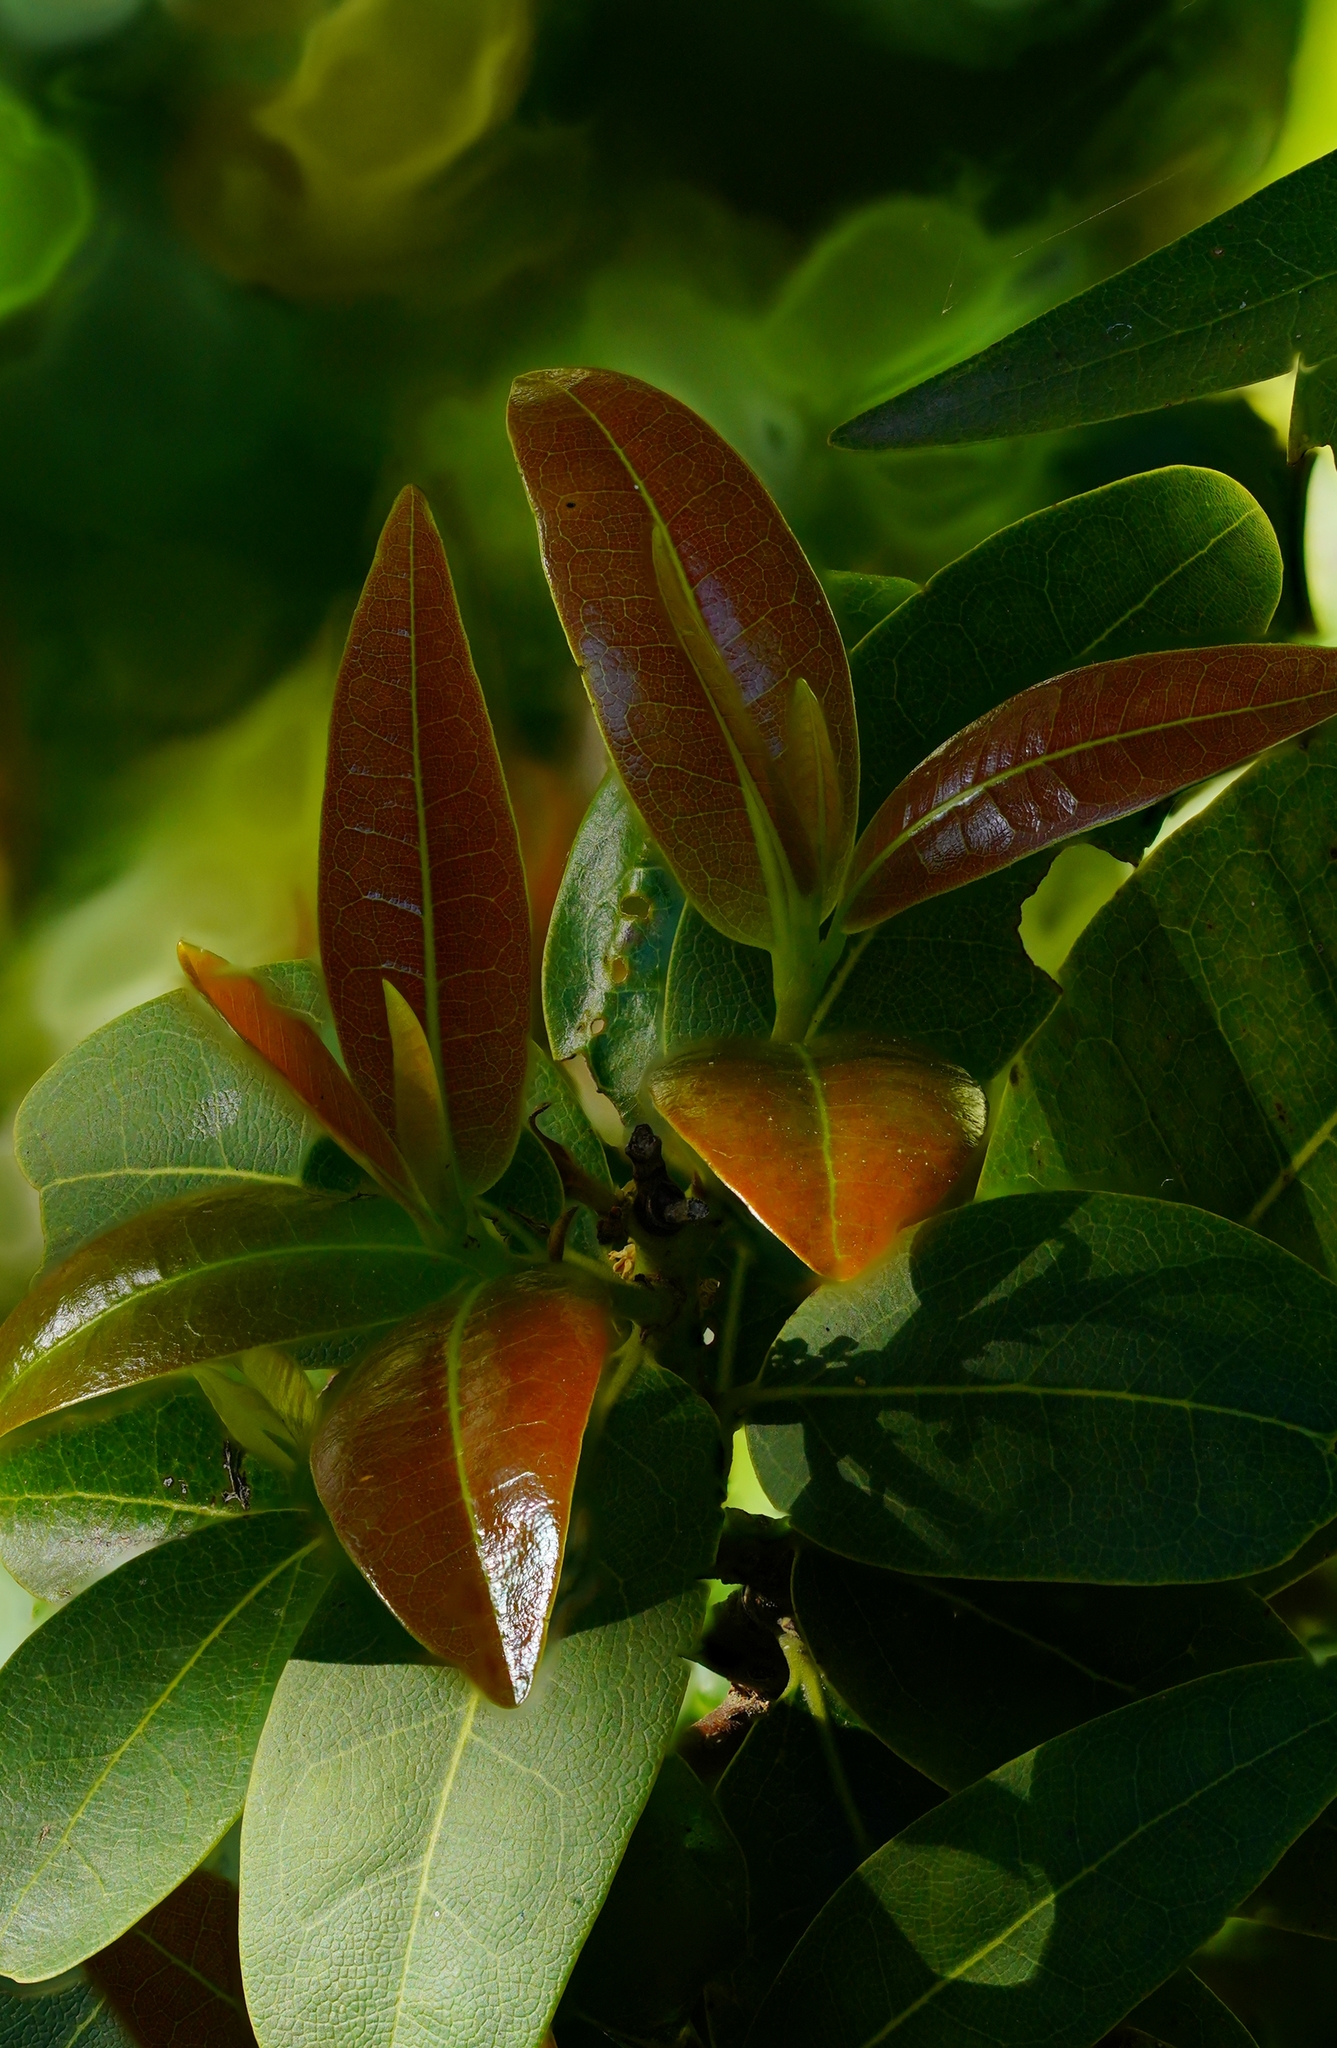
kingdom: Plantae
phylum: Tracheophyta
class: Magnoliopsida
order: Laurales
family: Lauraceae
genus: Umbellularia
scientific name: Umbellularia californica
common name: California bay
